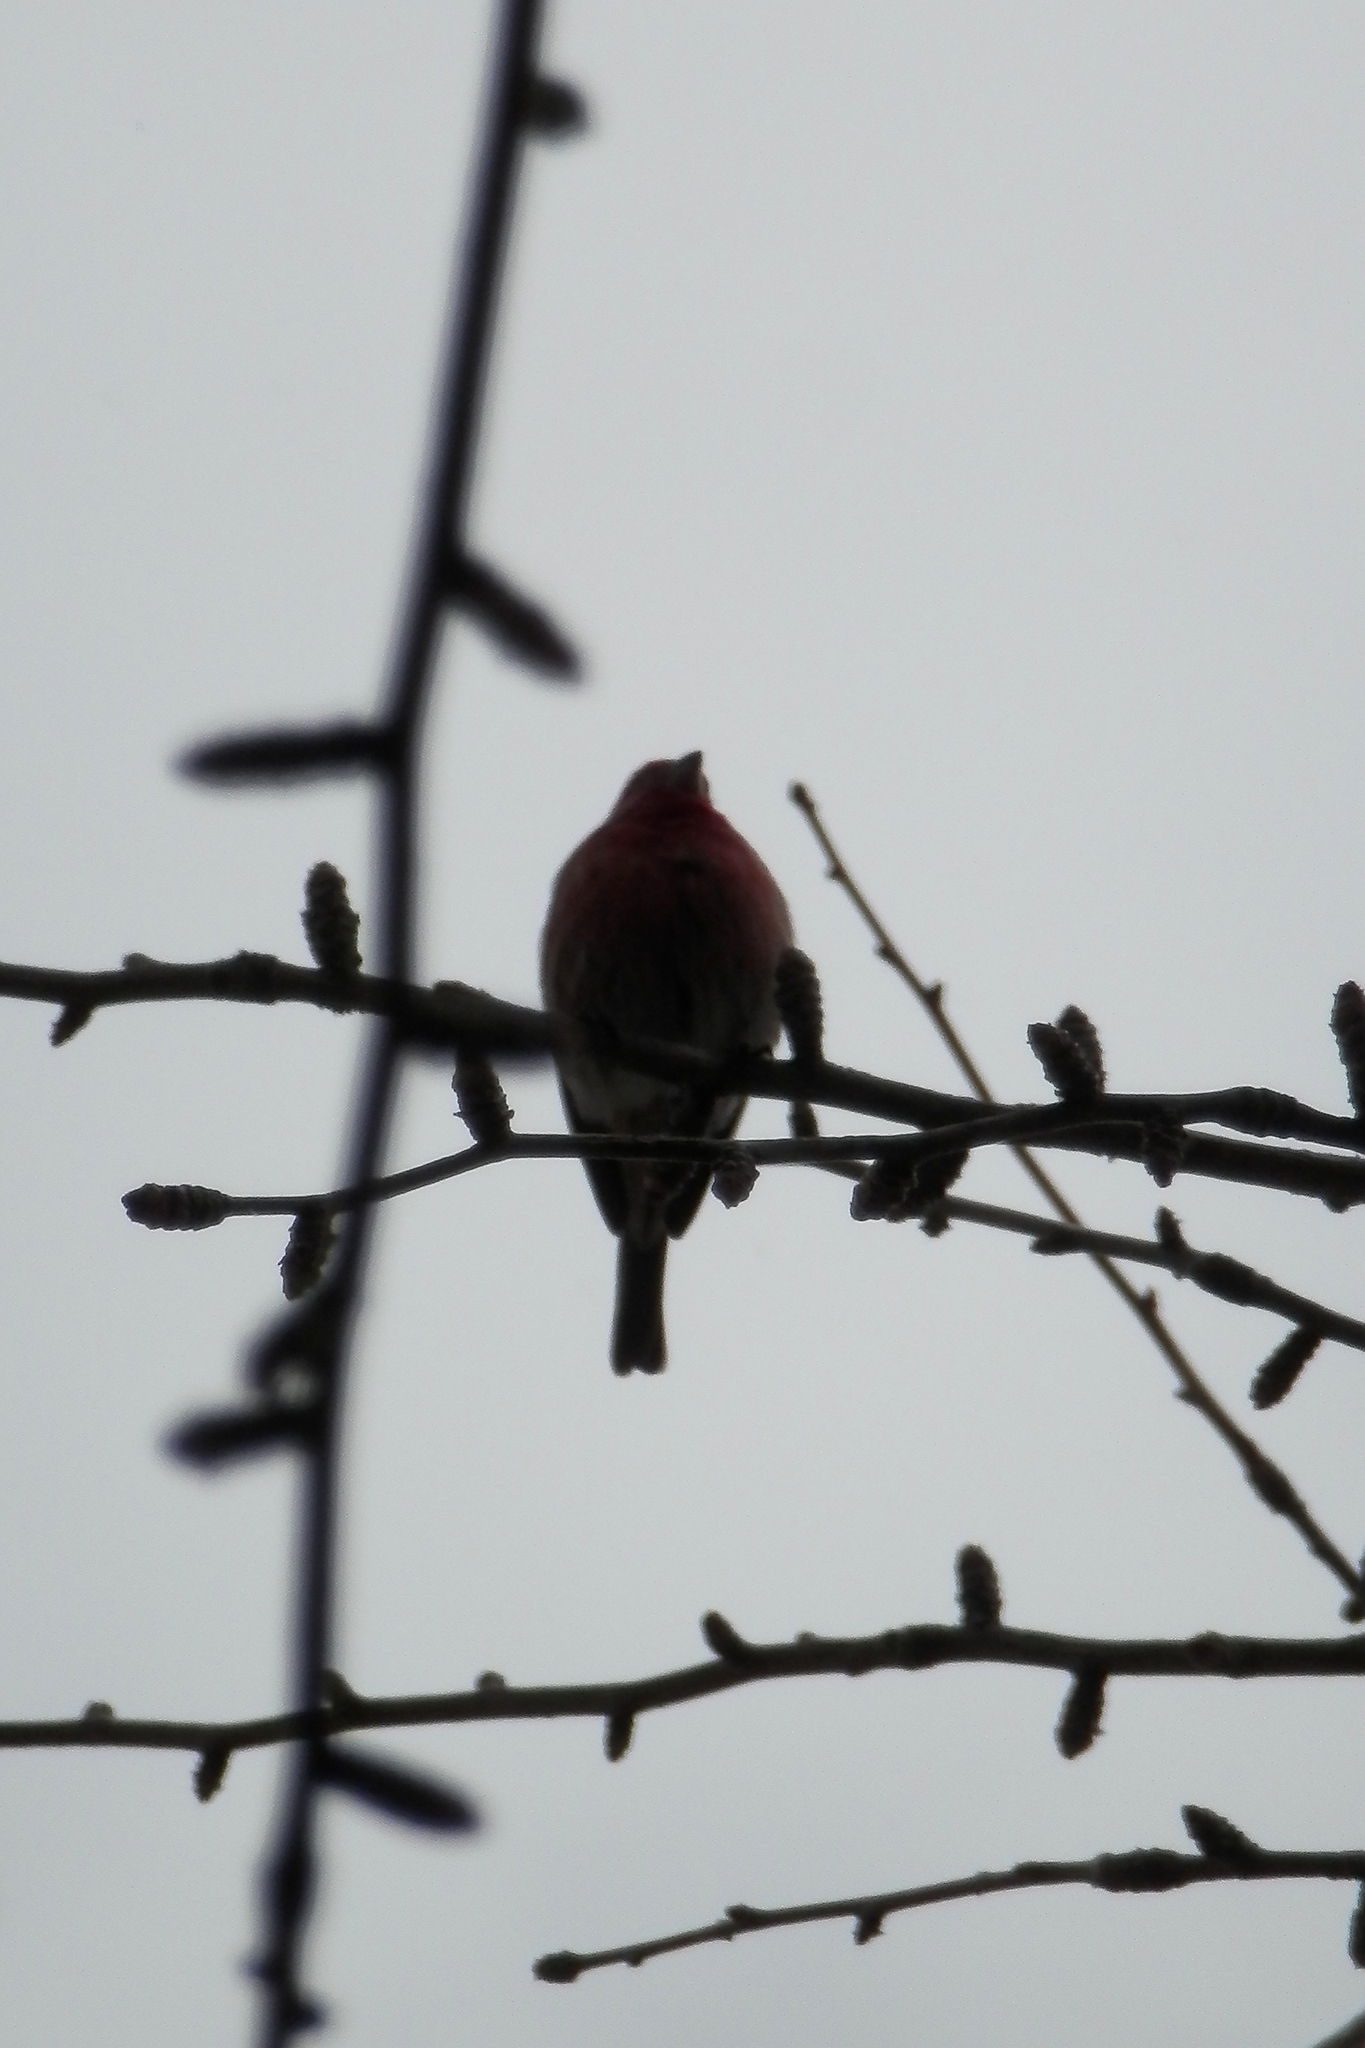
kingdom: Animalia
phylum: Chordata
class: Aves
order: Passeriformes
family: Fringillidae
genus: Haemorhous
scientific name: Haemorhous mexicanus
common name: House finch
